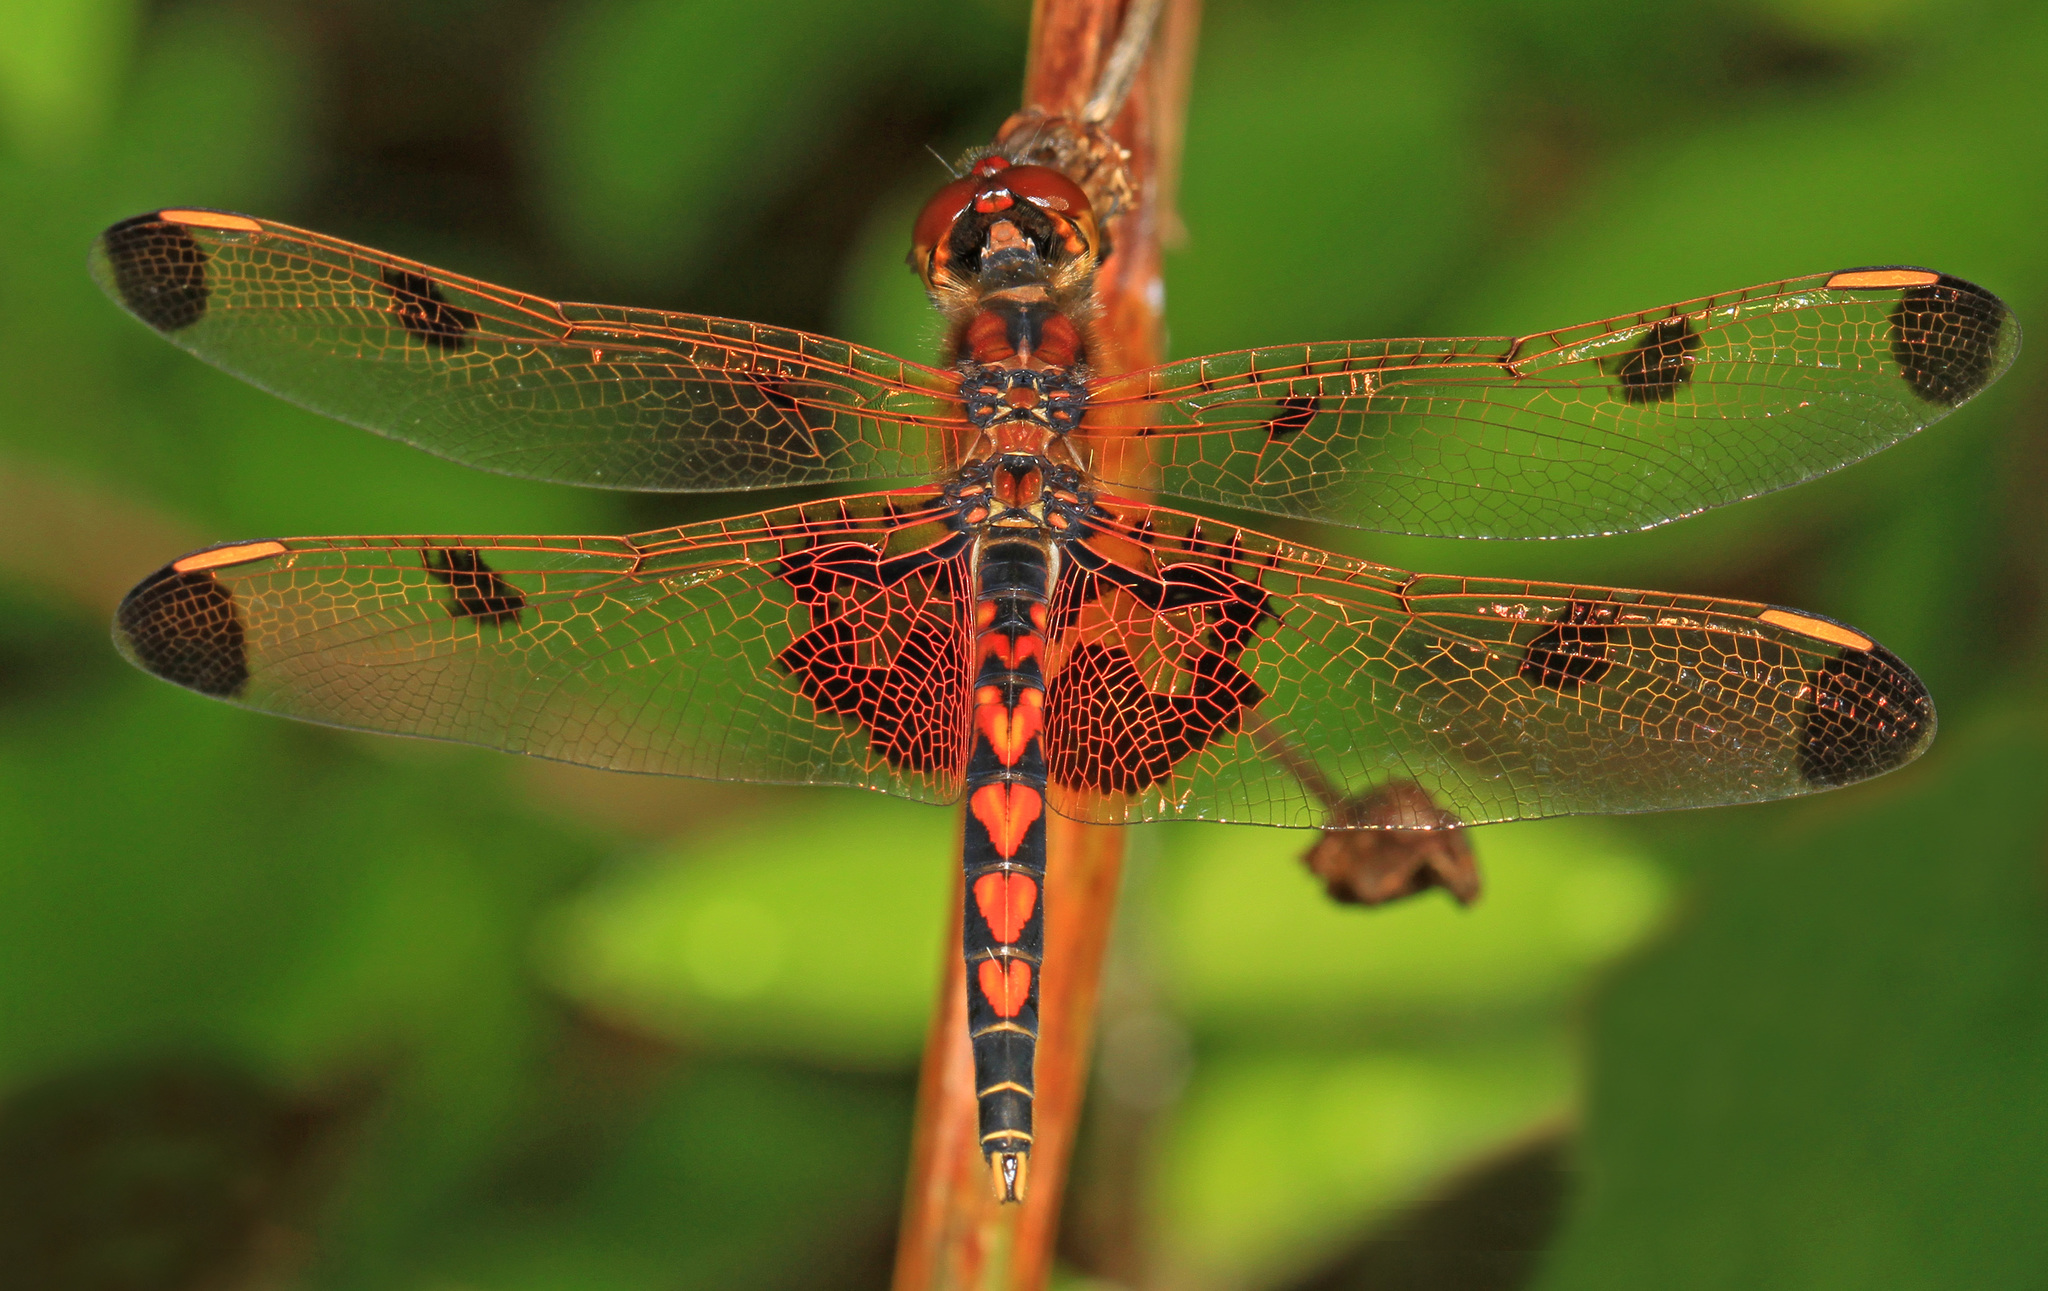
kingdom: Animalia
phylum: Arthropoda
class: Insecta
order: Odonata
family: Libellulidae
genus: Celithemis
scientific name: Celithemis elisa
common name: Calico pennant
